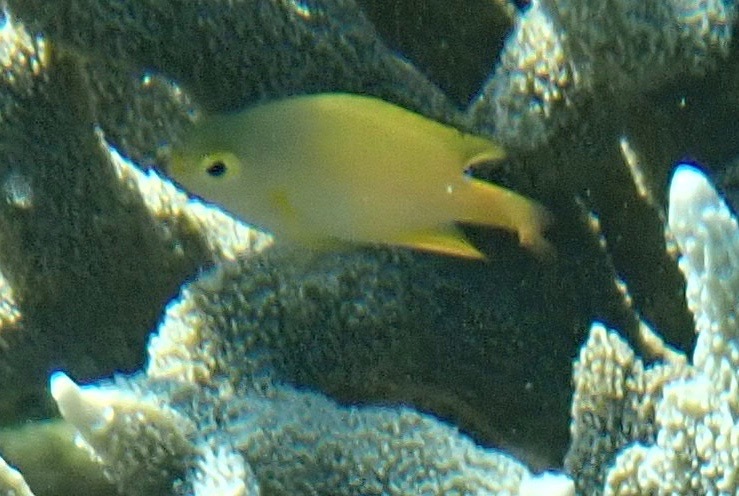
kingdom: Animalia
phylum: Chordata
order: Perciformes
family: Pomacentridae
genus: Pomacentrus
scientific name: Pomacentrus moluccensis
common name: Lemon damsel
